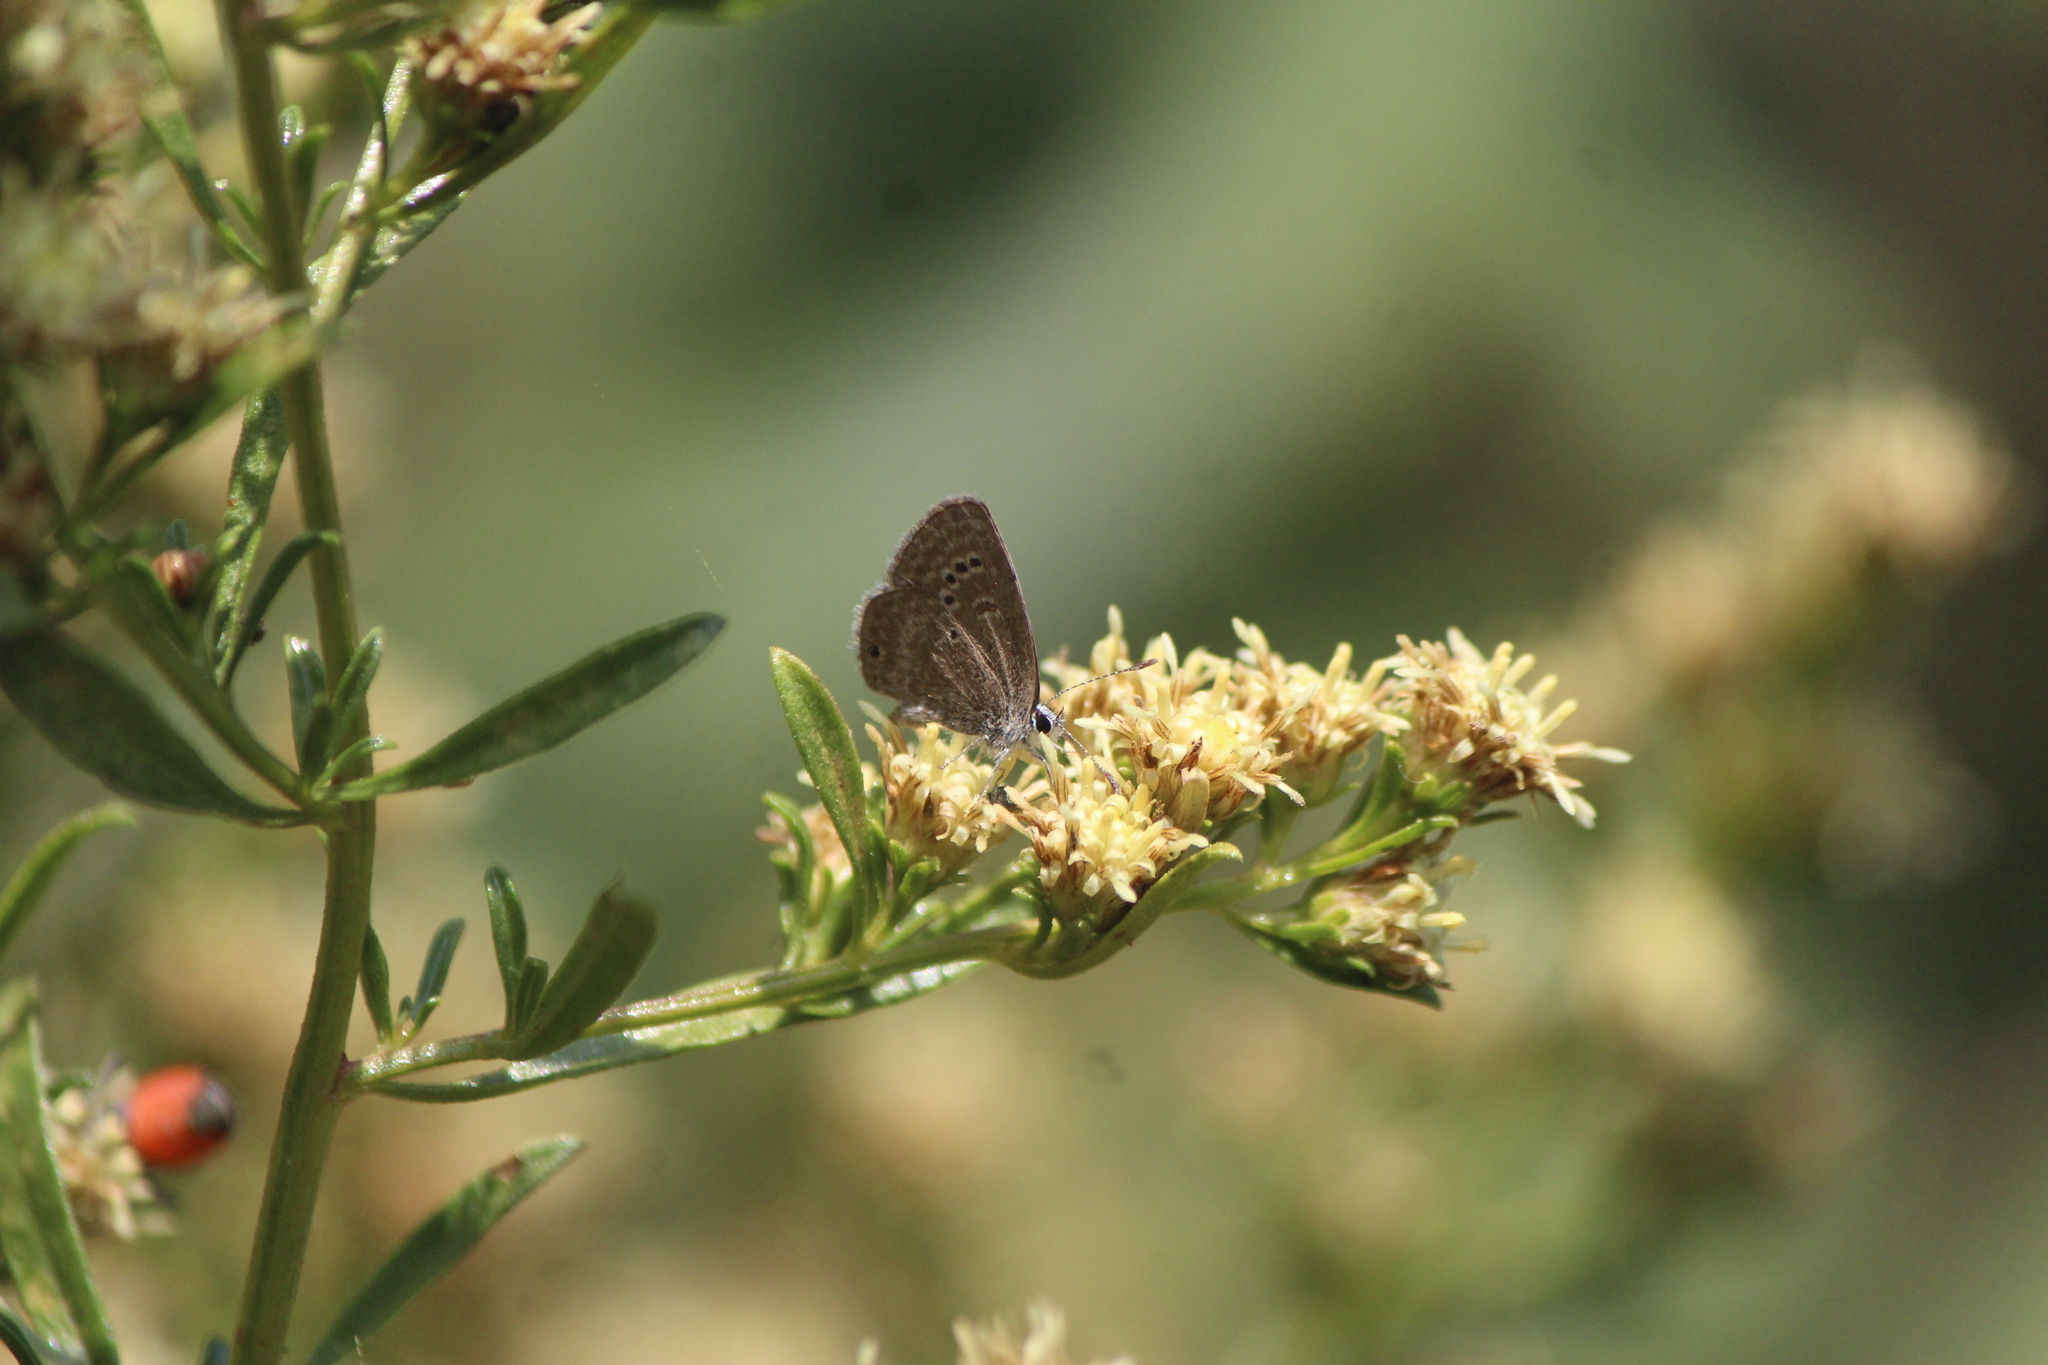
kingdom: Animalia
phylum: Arthropoda
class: Insecta
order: Lepidoptera
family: Lycaenidae
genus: Echinargus
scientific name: Echinargus isola
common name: Reakirt's blue
